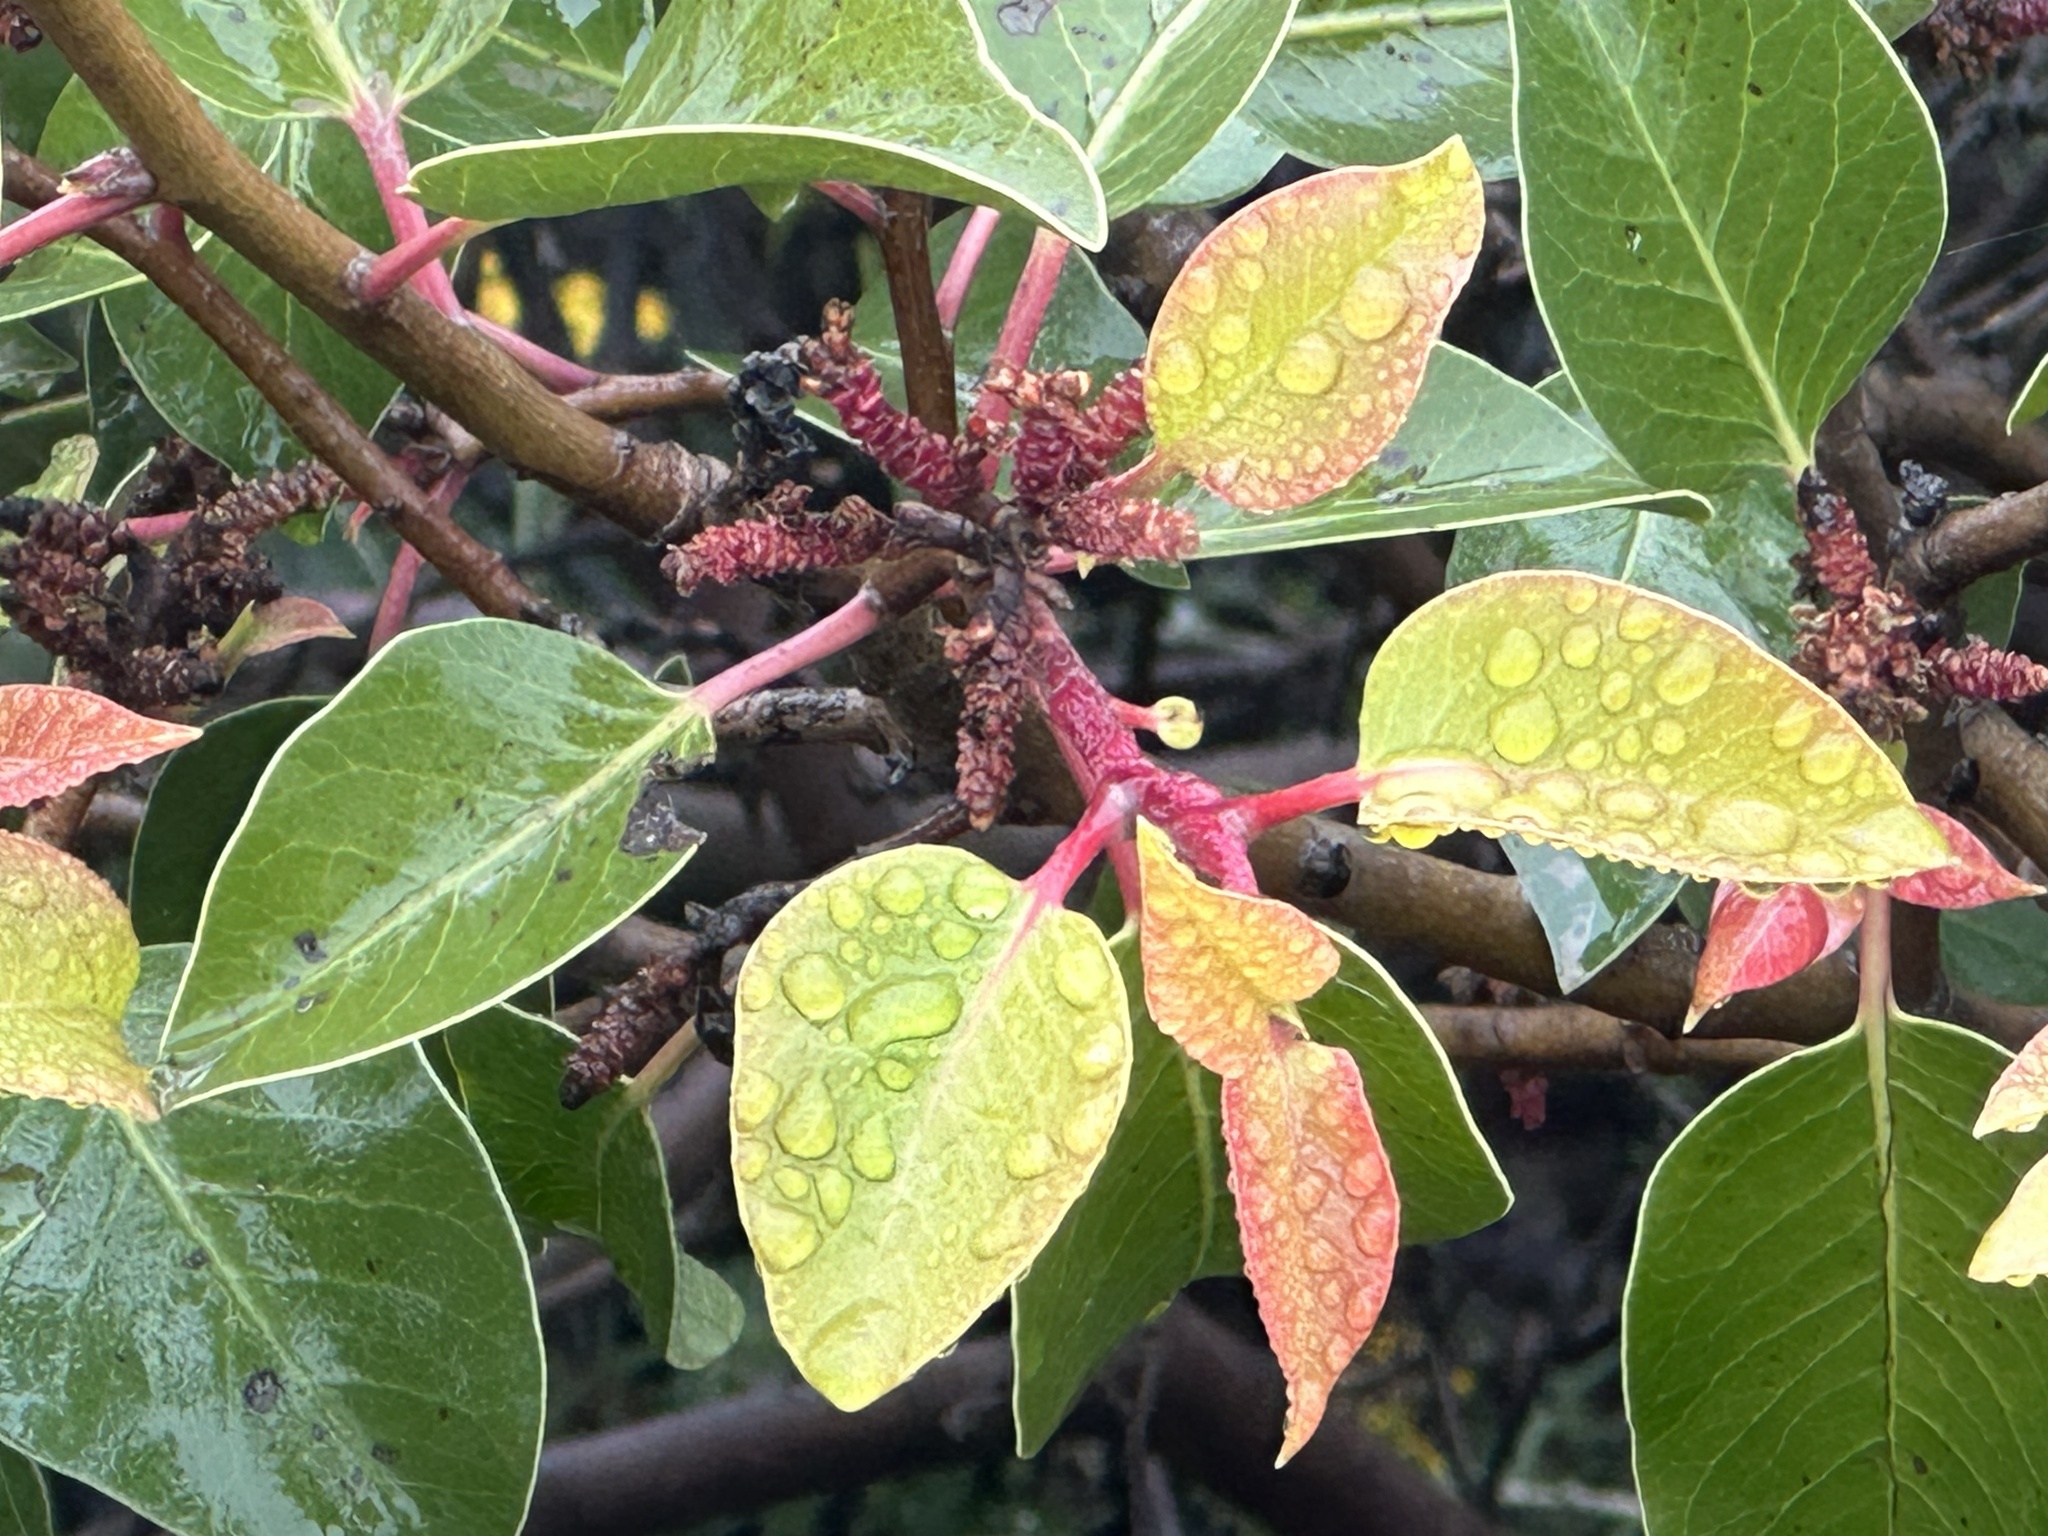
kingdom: Plantae
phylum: Tracheophyta
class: Magnoliopsida
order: Sapindales
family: Anacardiaceae
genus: Rhus
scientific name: Rhus ovata
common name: Sugar sumac
